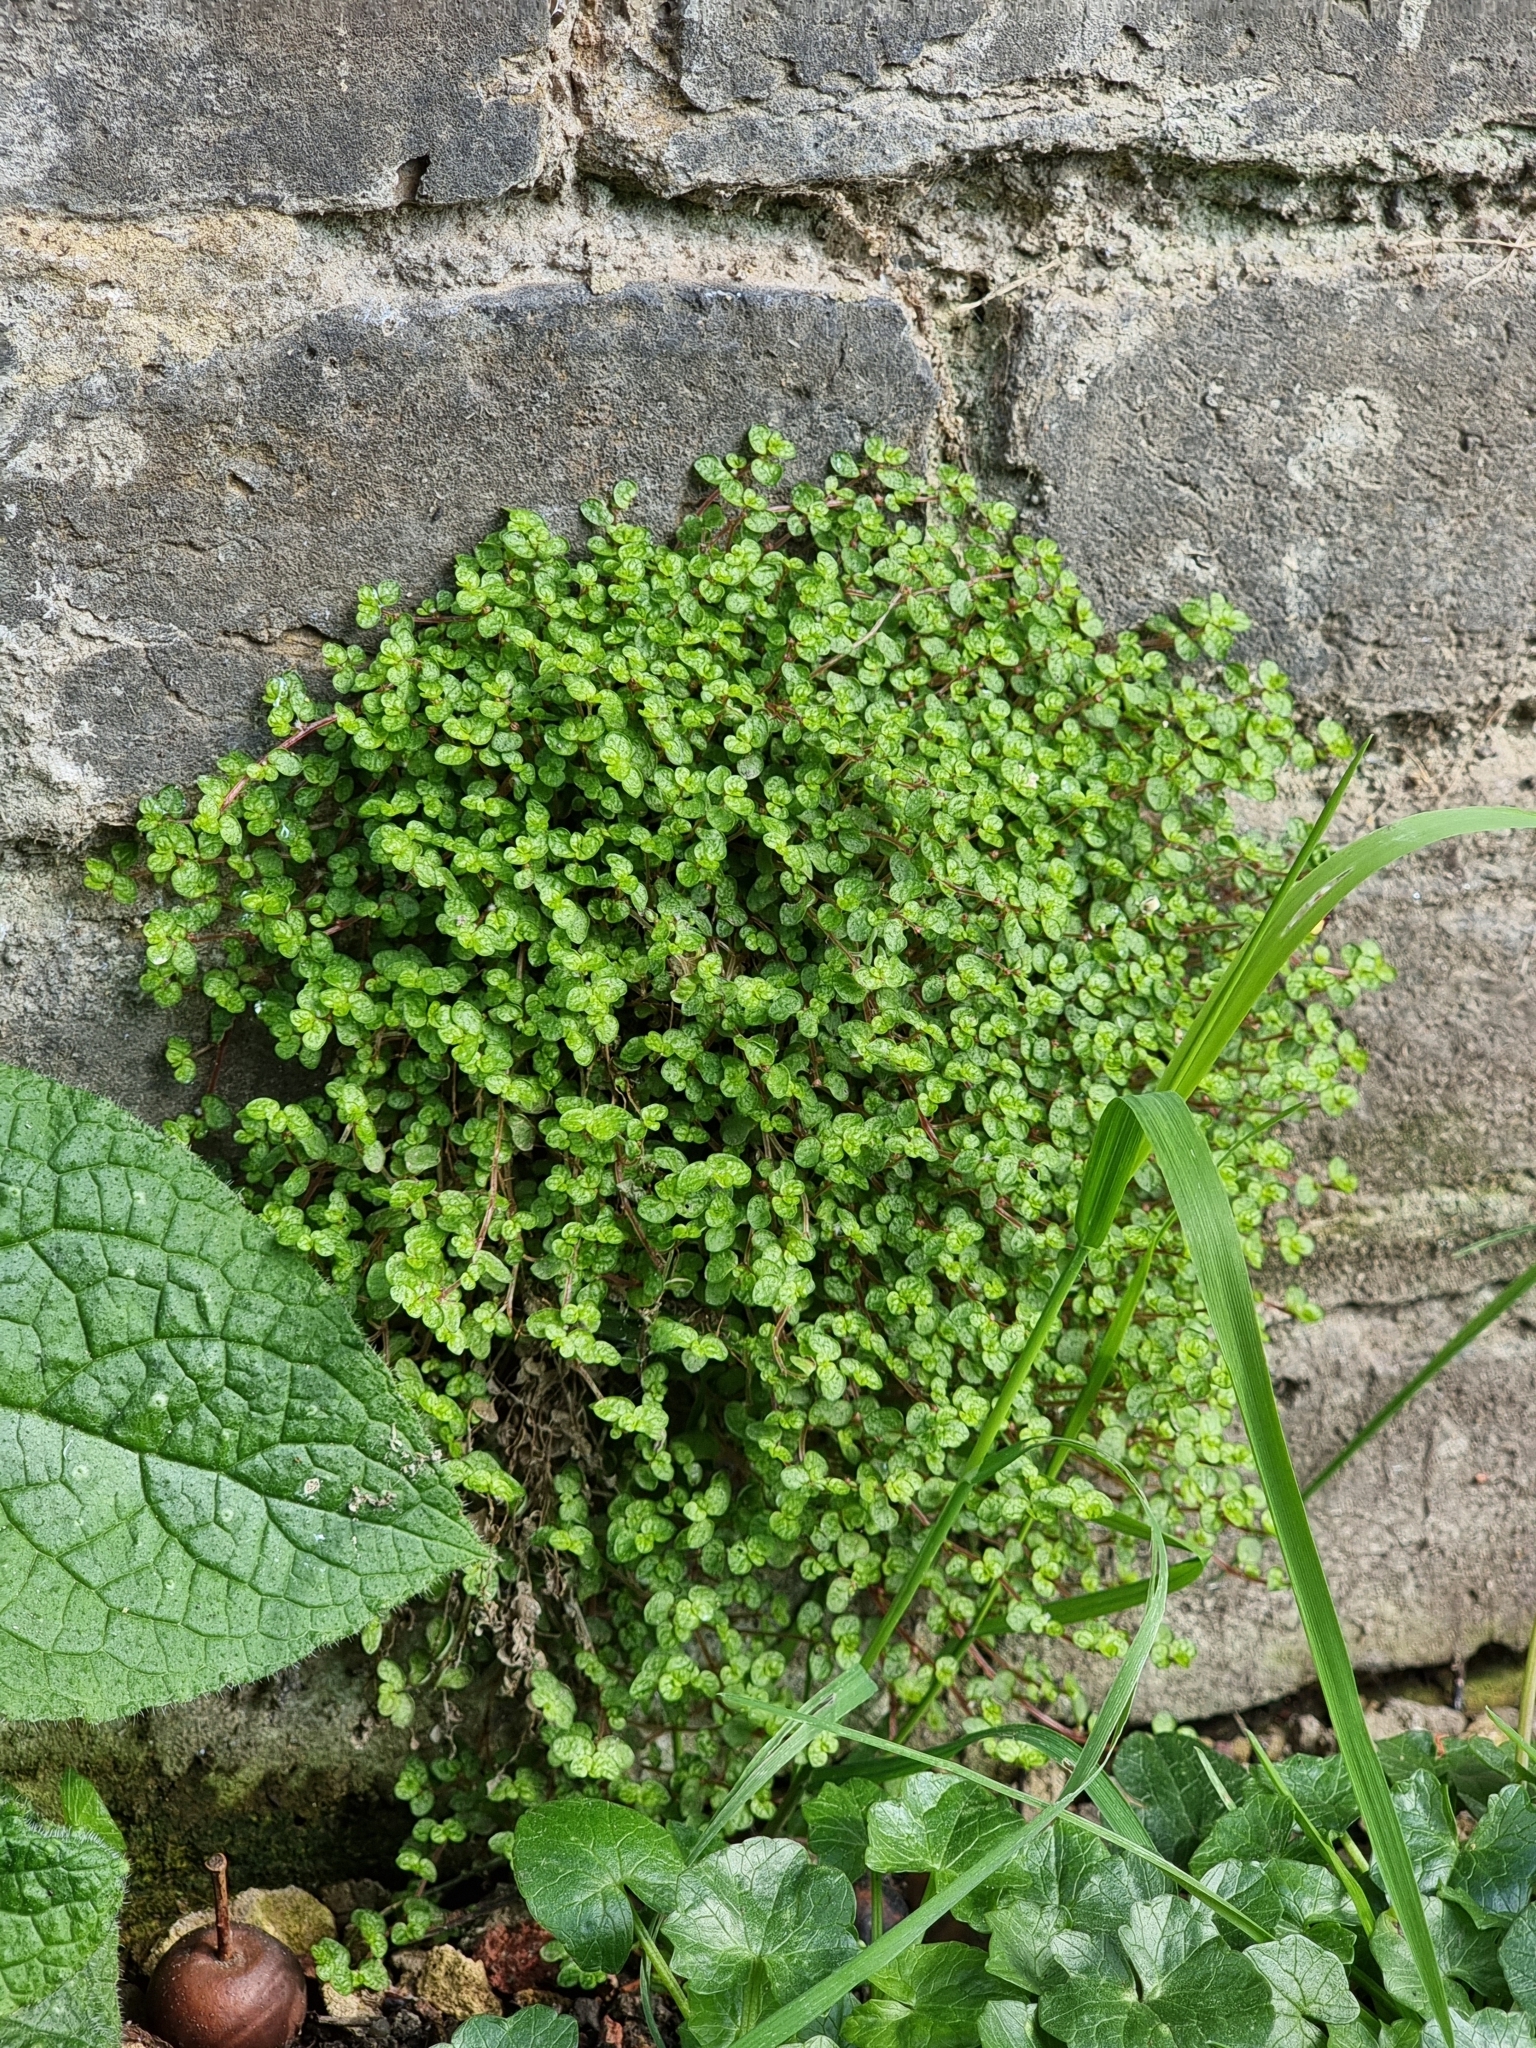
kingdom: Plantae
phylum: Tracheophyta
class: Magnoliopsida
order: Rosales
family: Urticaceae
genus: Soleirolia
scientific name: Soleirolia soleirolii
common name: Mind-your-own-business
